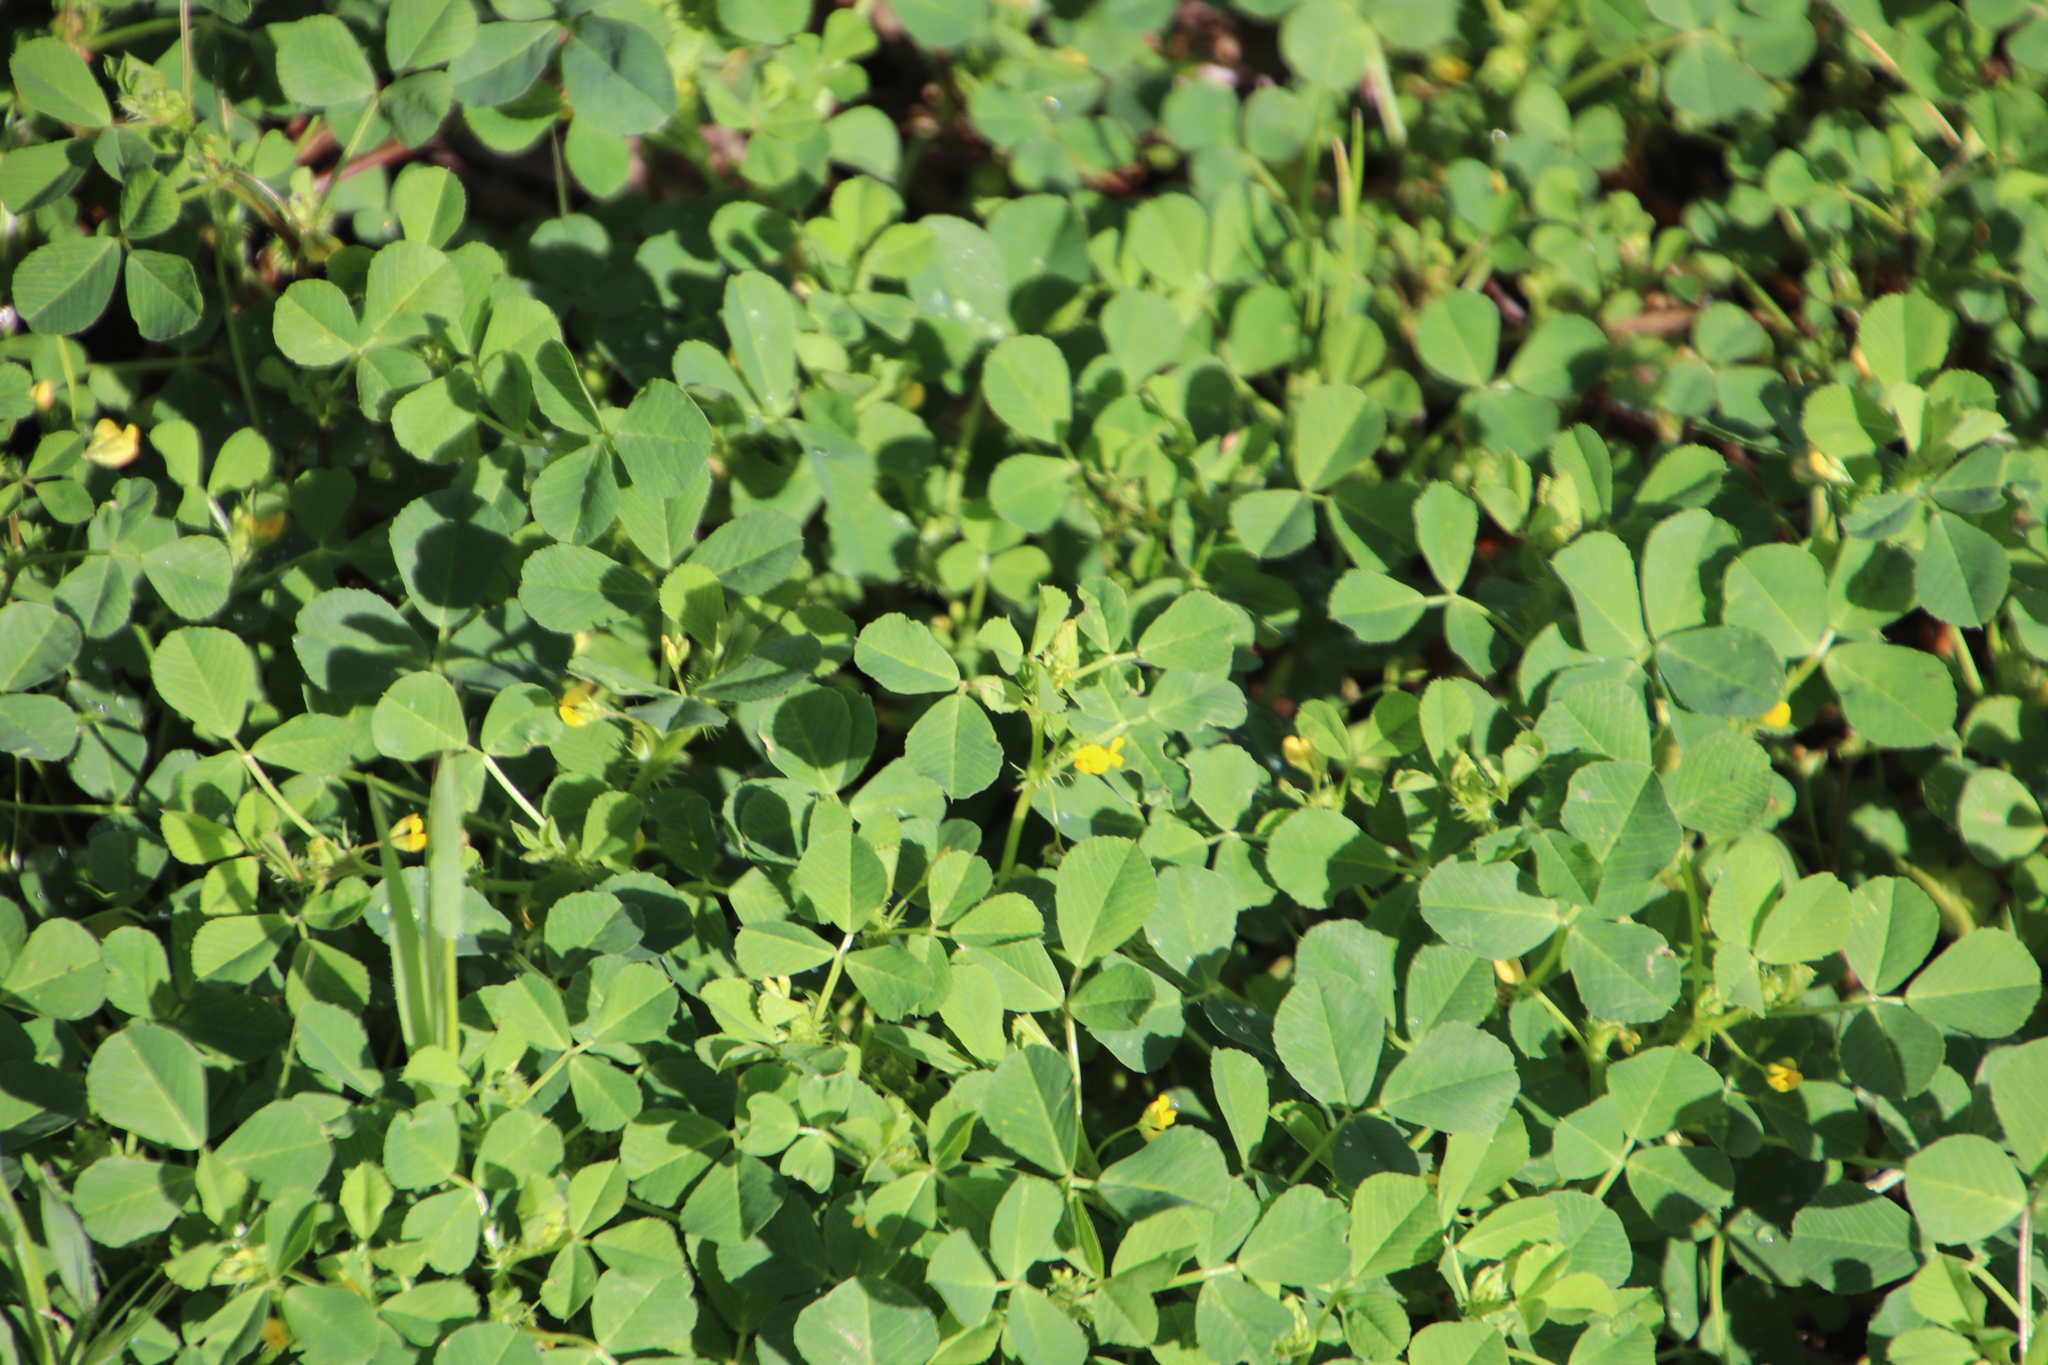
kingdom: Plantae
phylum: Tracheophyta
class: Magnoliopsida
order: Fabales
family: Fabaceae
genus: Medicago
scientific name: Medicago polymorpha
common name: Burclover
